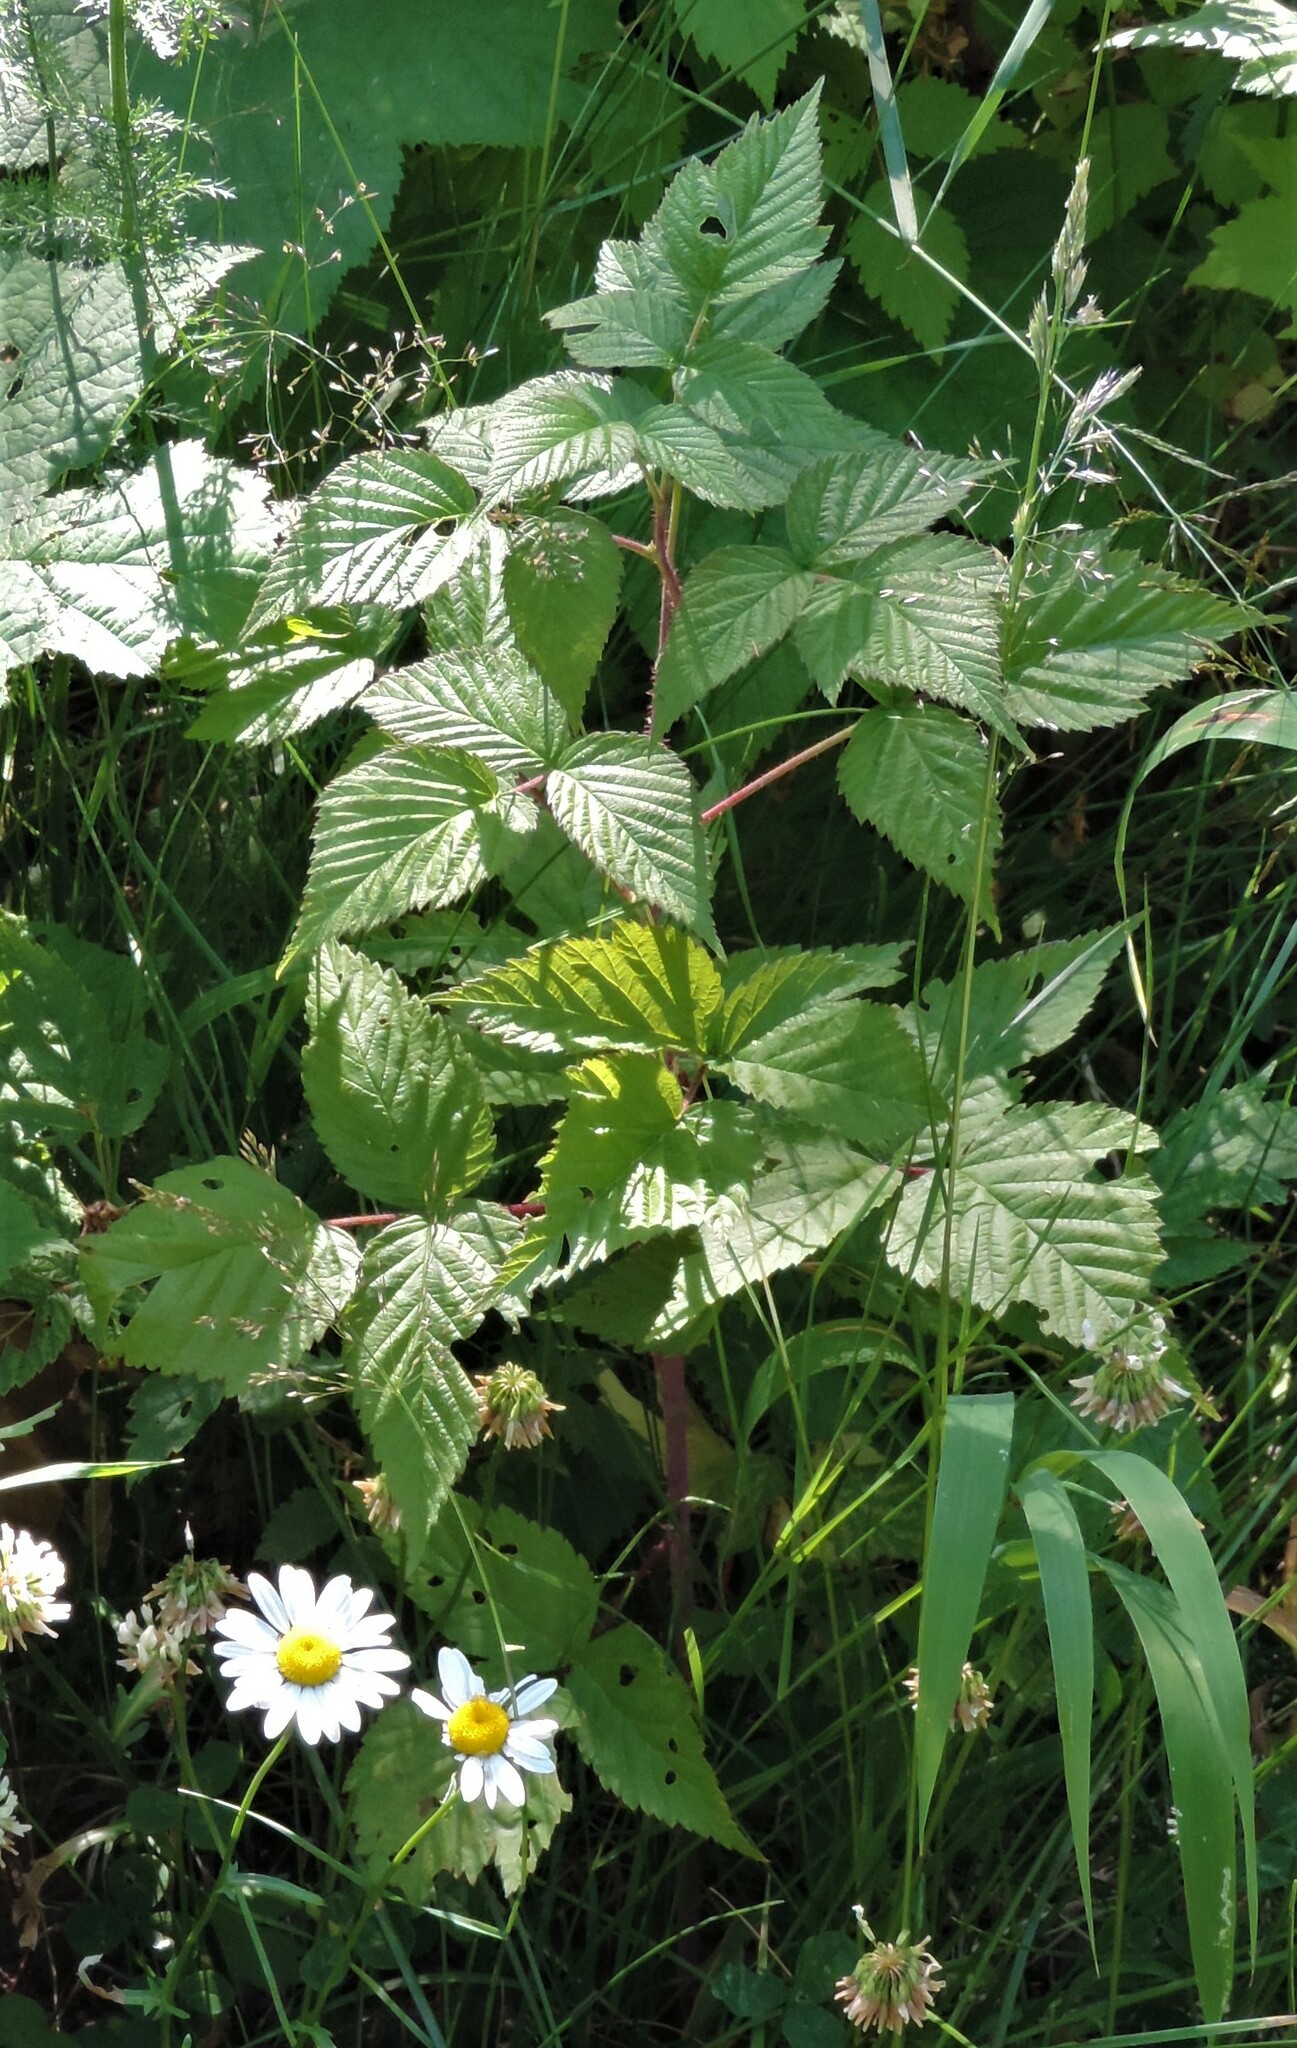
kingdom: Plantae
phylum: Tracheophyta
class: Magnoliopsida
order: Rosales
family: Rosaceae
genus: Rubus
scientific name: Rubus idaeus
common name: Raspberry
